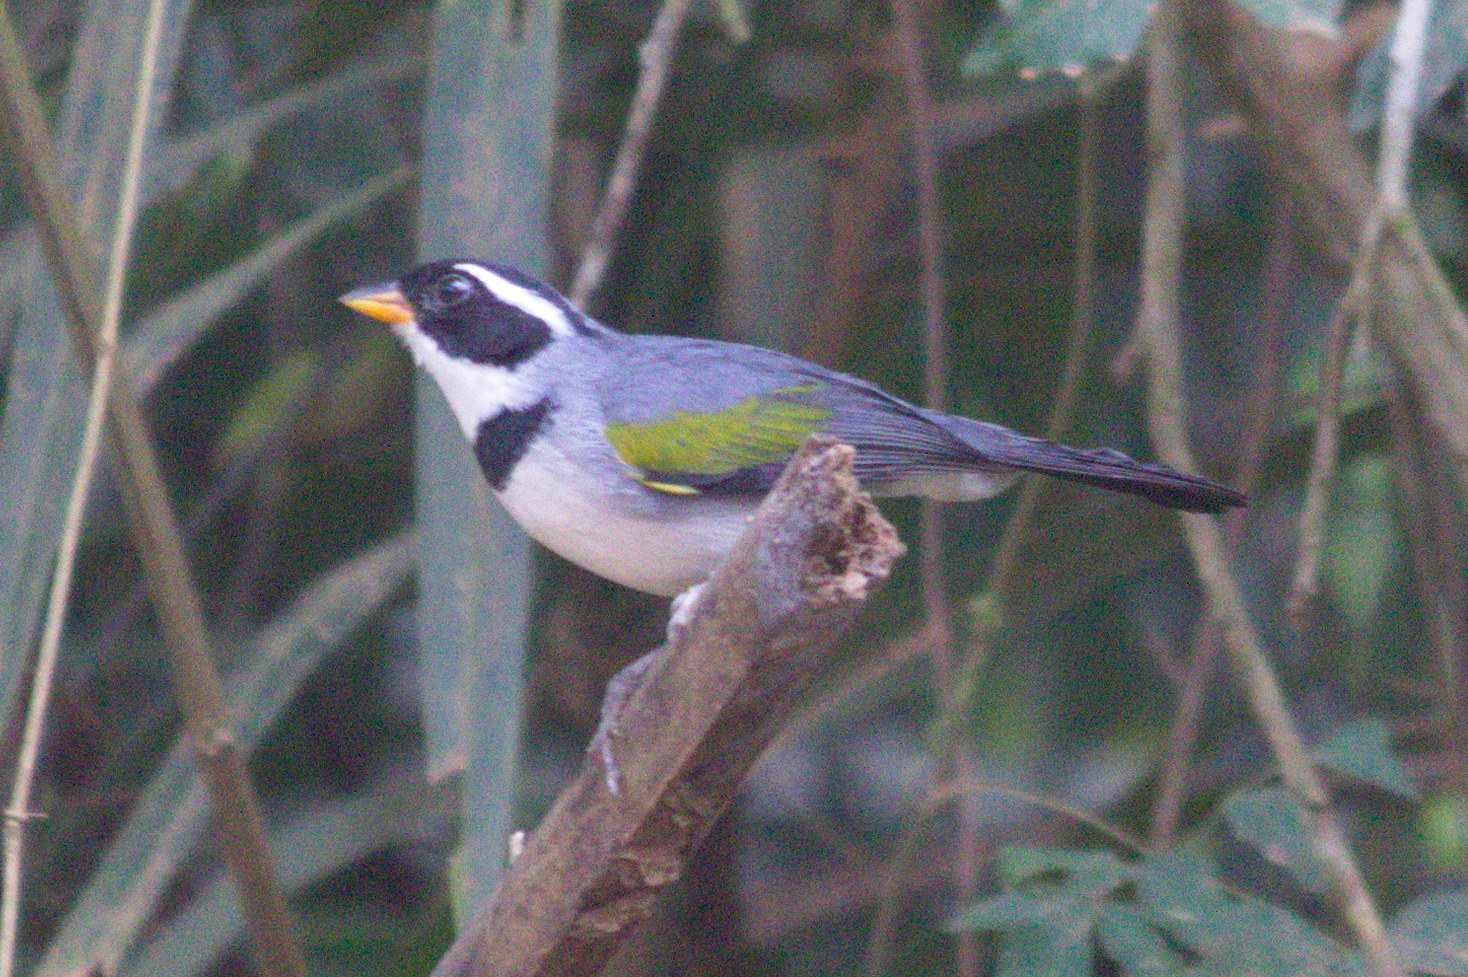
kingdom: Animalia
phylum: Chordata
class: Aves
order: Passeriformes
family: Passerellidae
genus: Arremon
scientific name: Arremon flavirostris
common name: Saffron-billed sparrow
